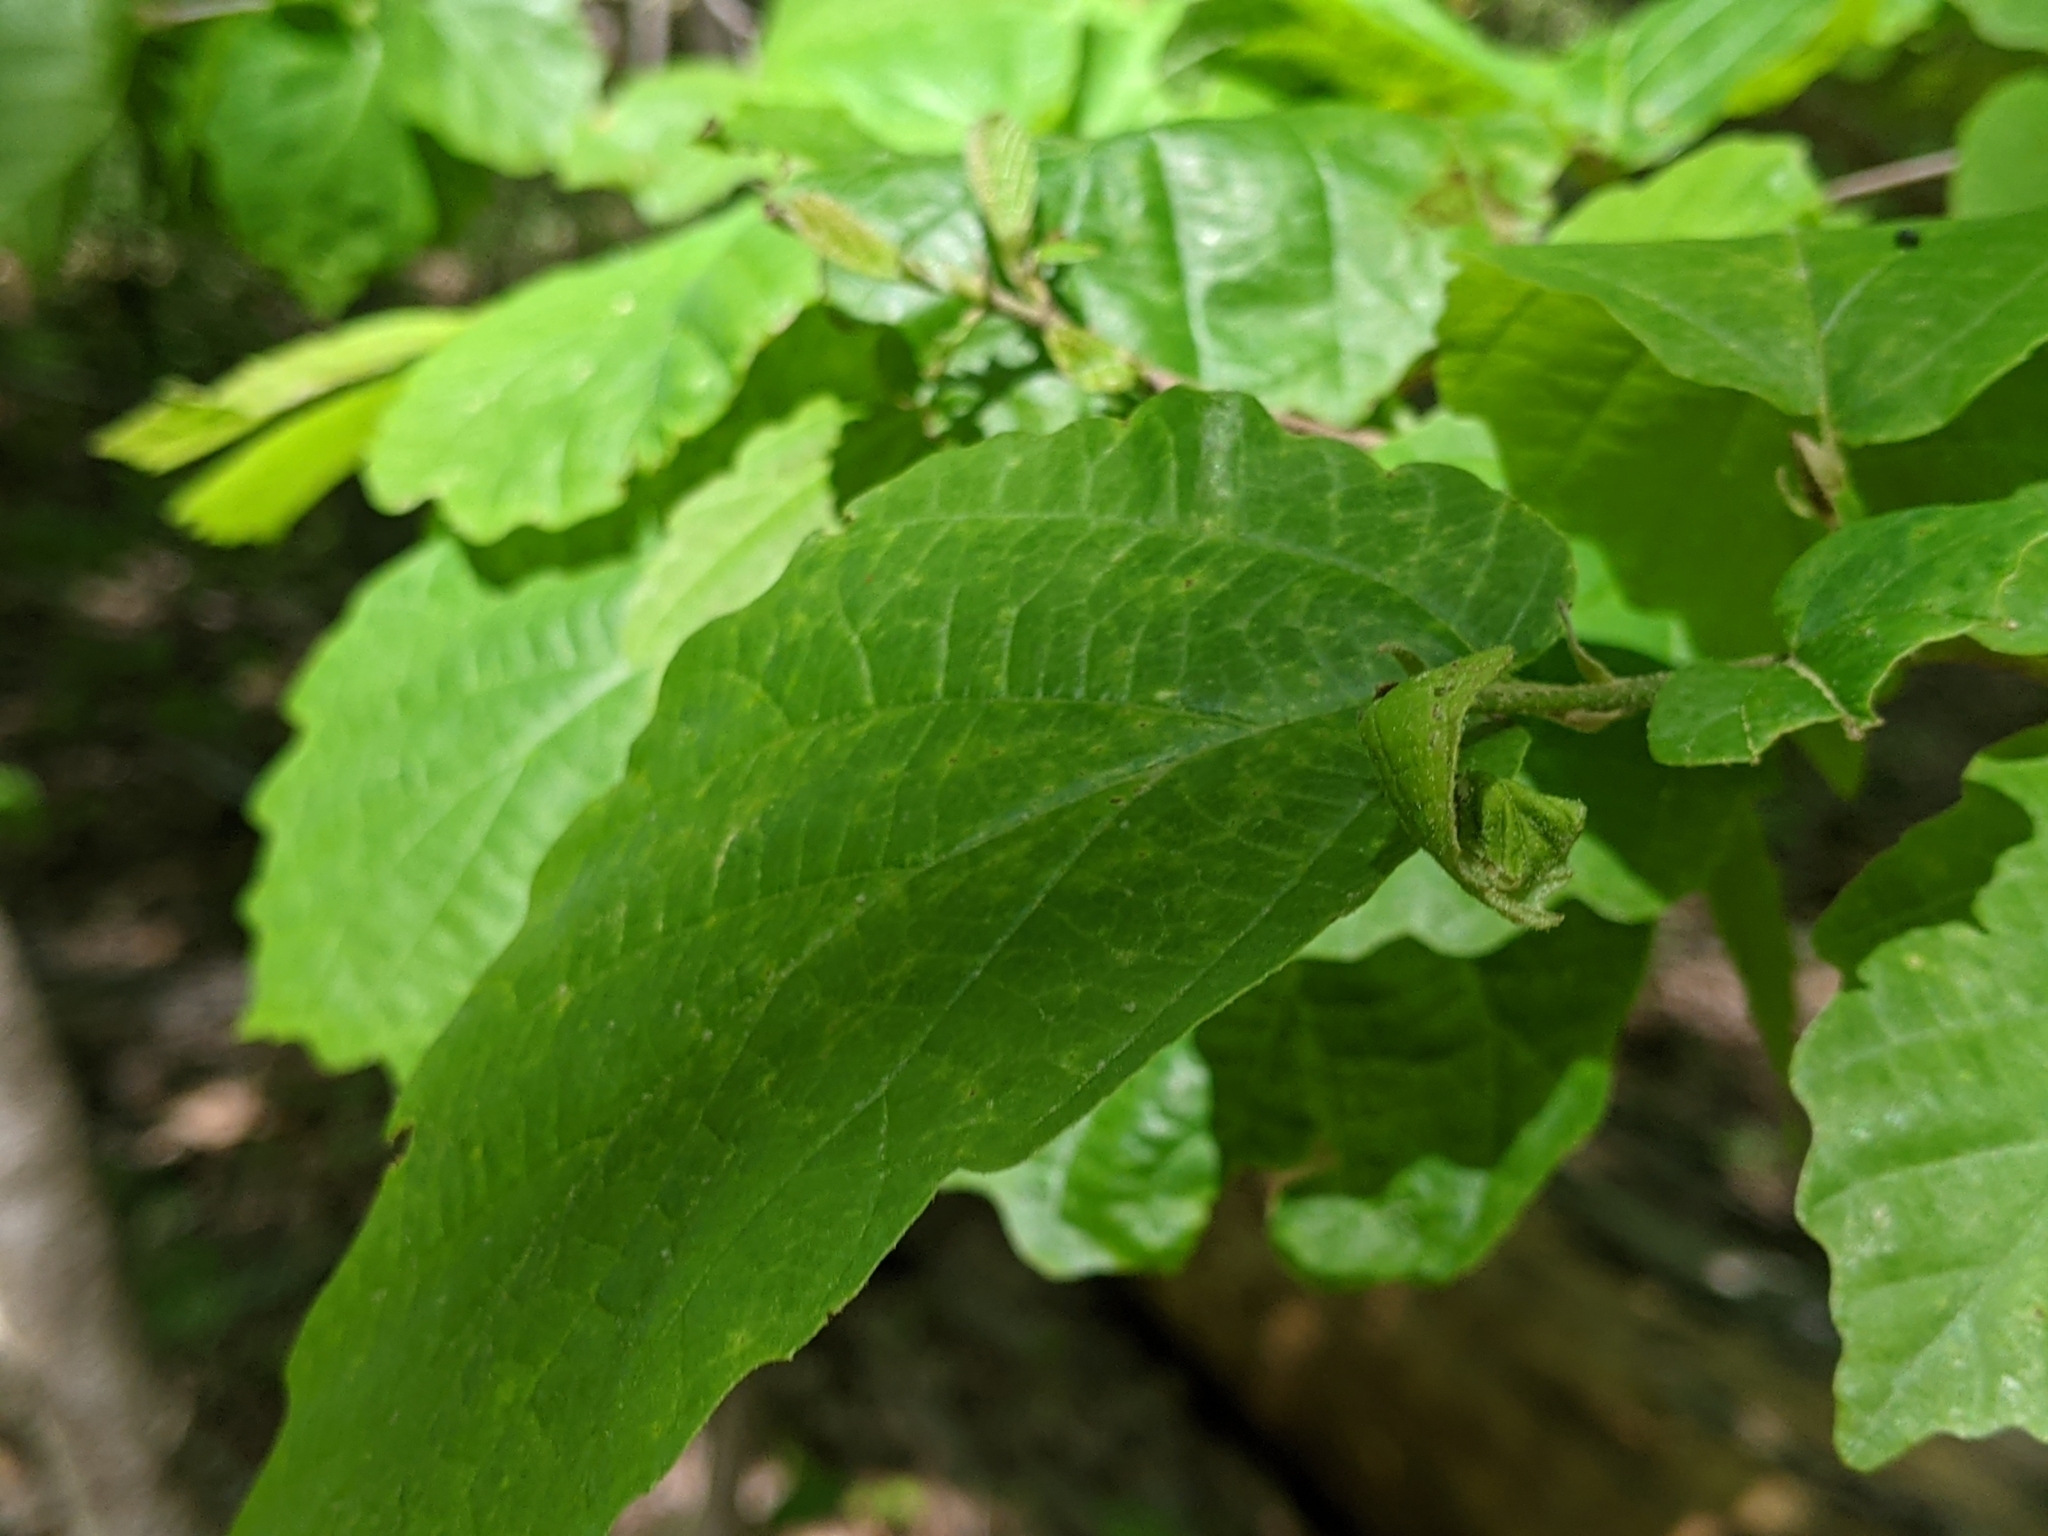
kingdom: Plantae
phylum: Tracheophyta
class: Magnoliopsida
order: Saxifragales
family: Hamamelidaceae
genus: Hamamelis
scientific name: Hamamelis virginiana
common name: Witch-hazel
